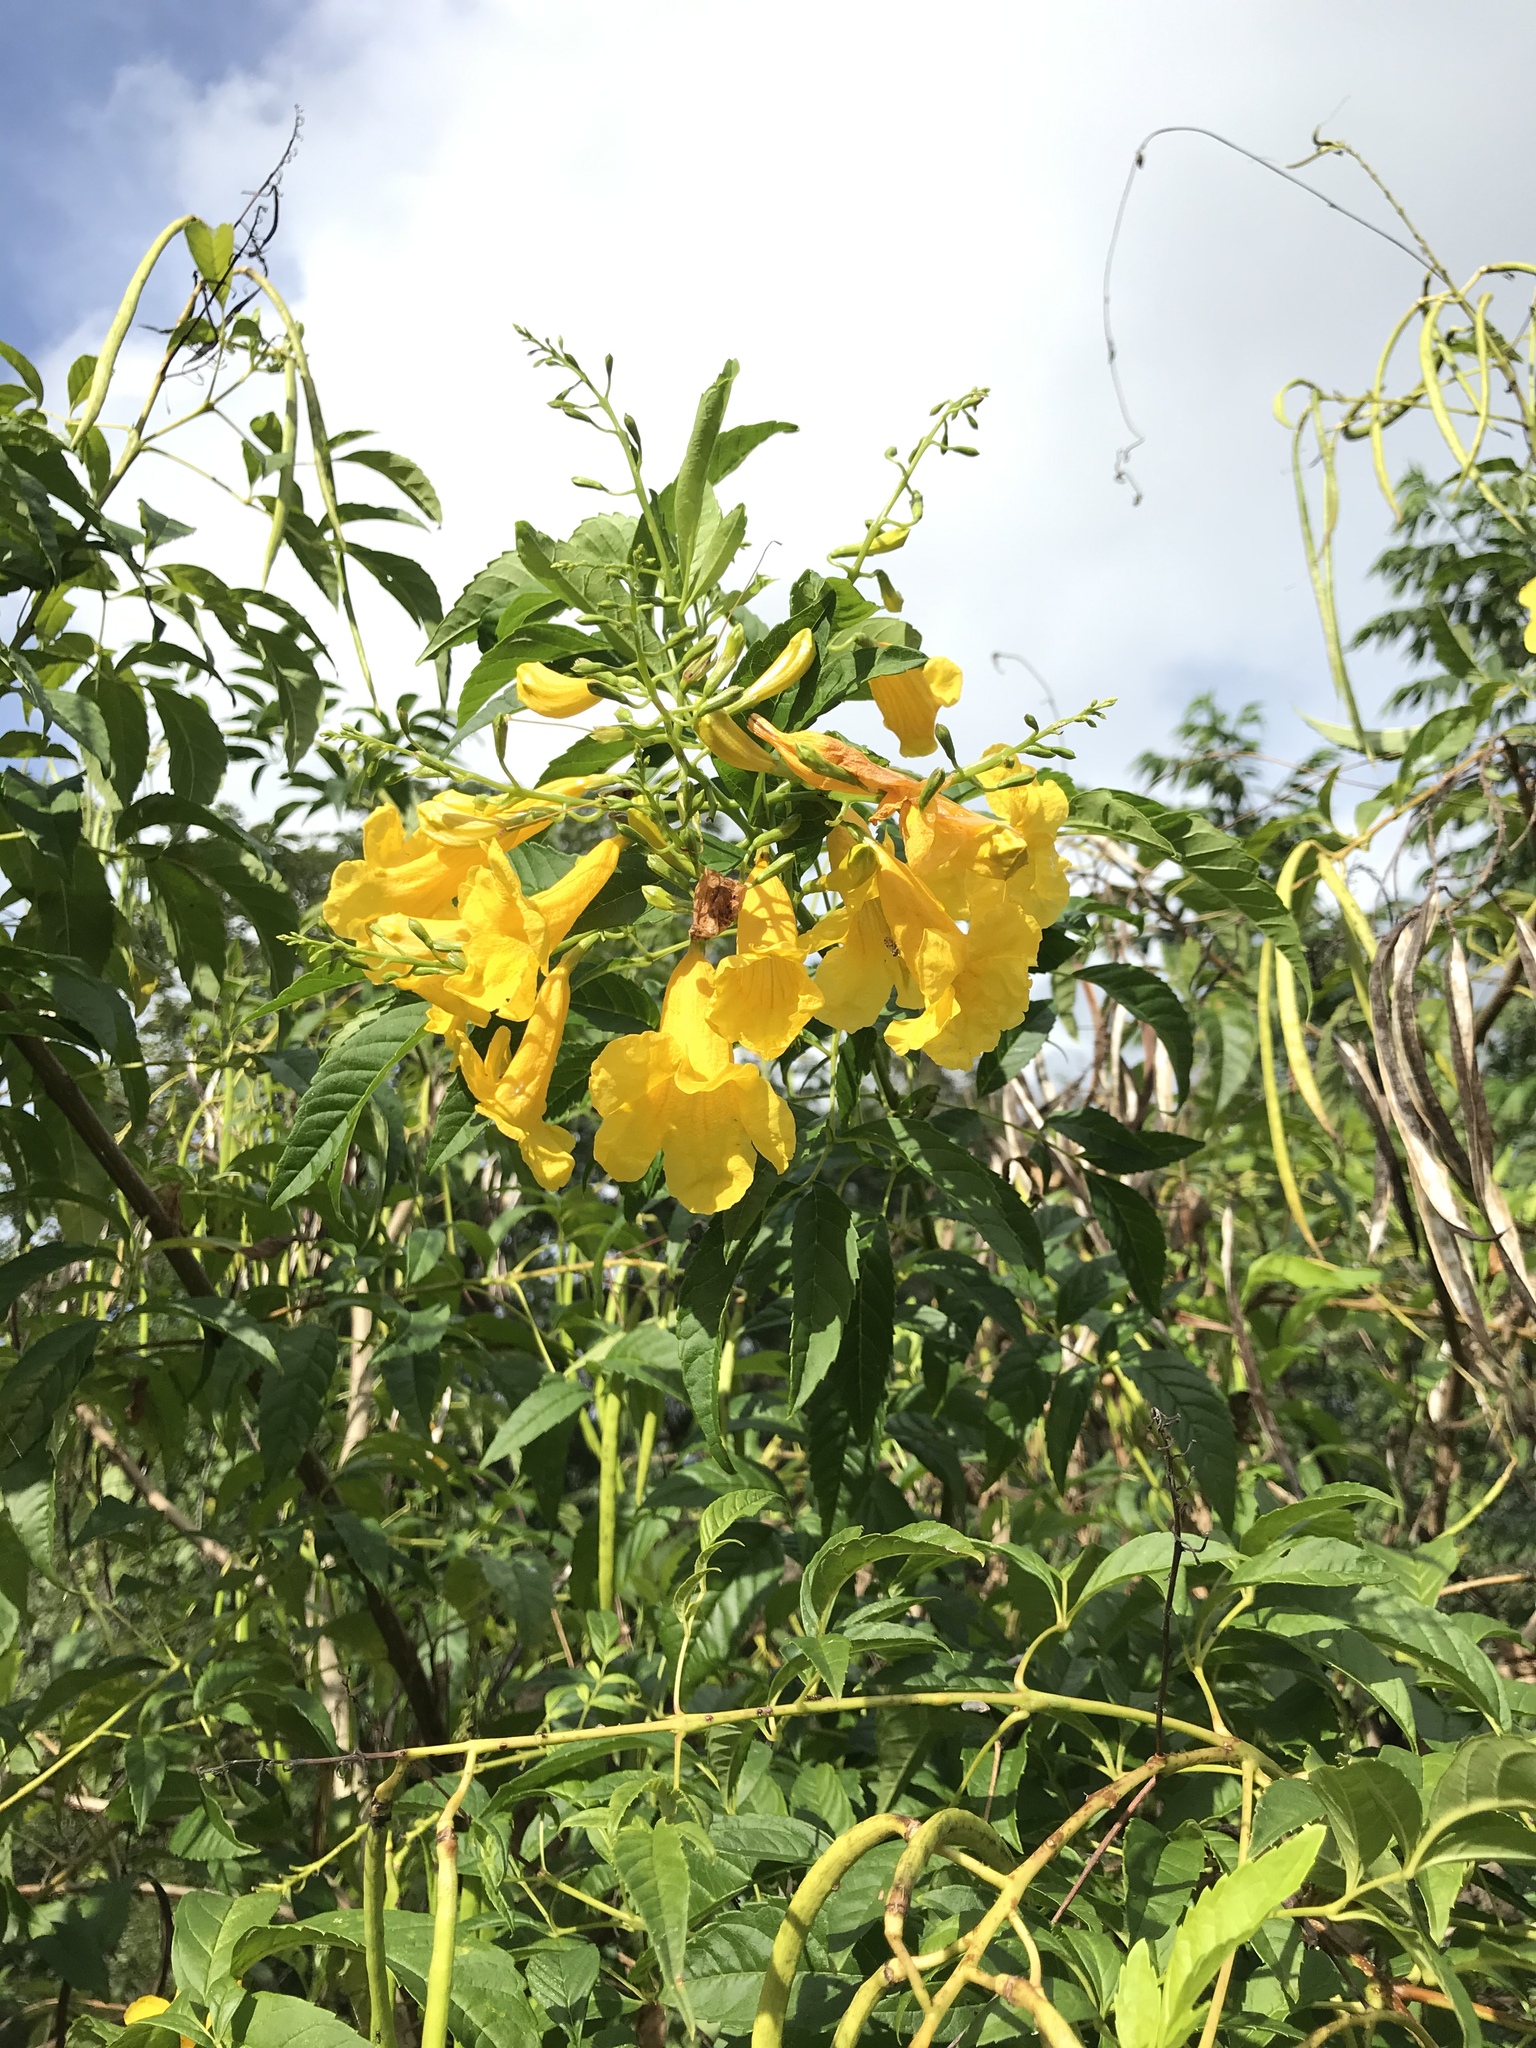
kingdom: Plantae
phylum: Tracheophyta
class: Magnoliopsida
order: Lamiales
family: Bignoniaceae
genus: Tecoma
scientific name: Tecoma stans
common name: Yellow trumpetbush
